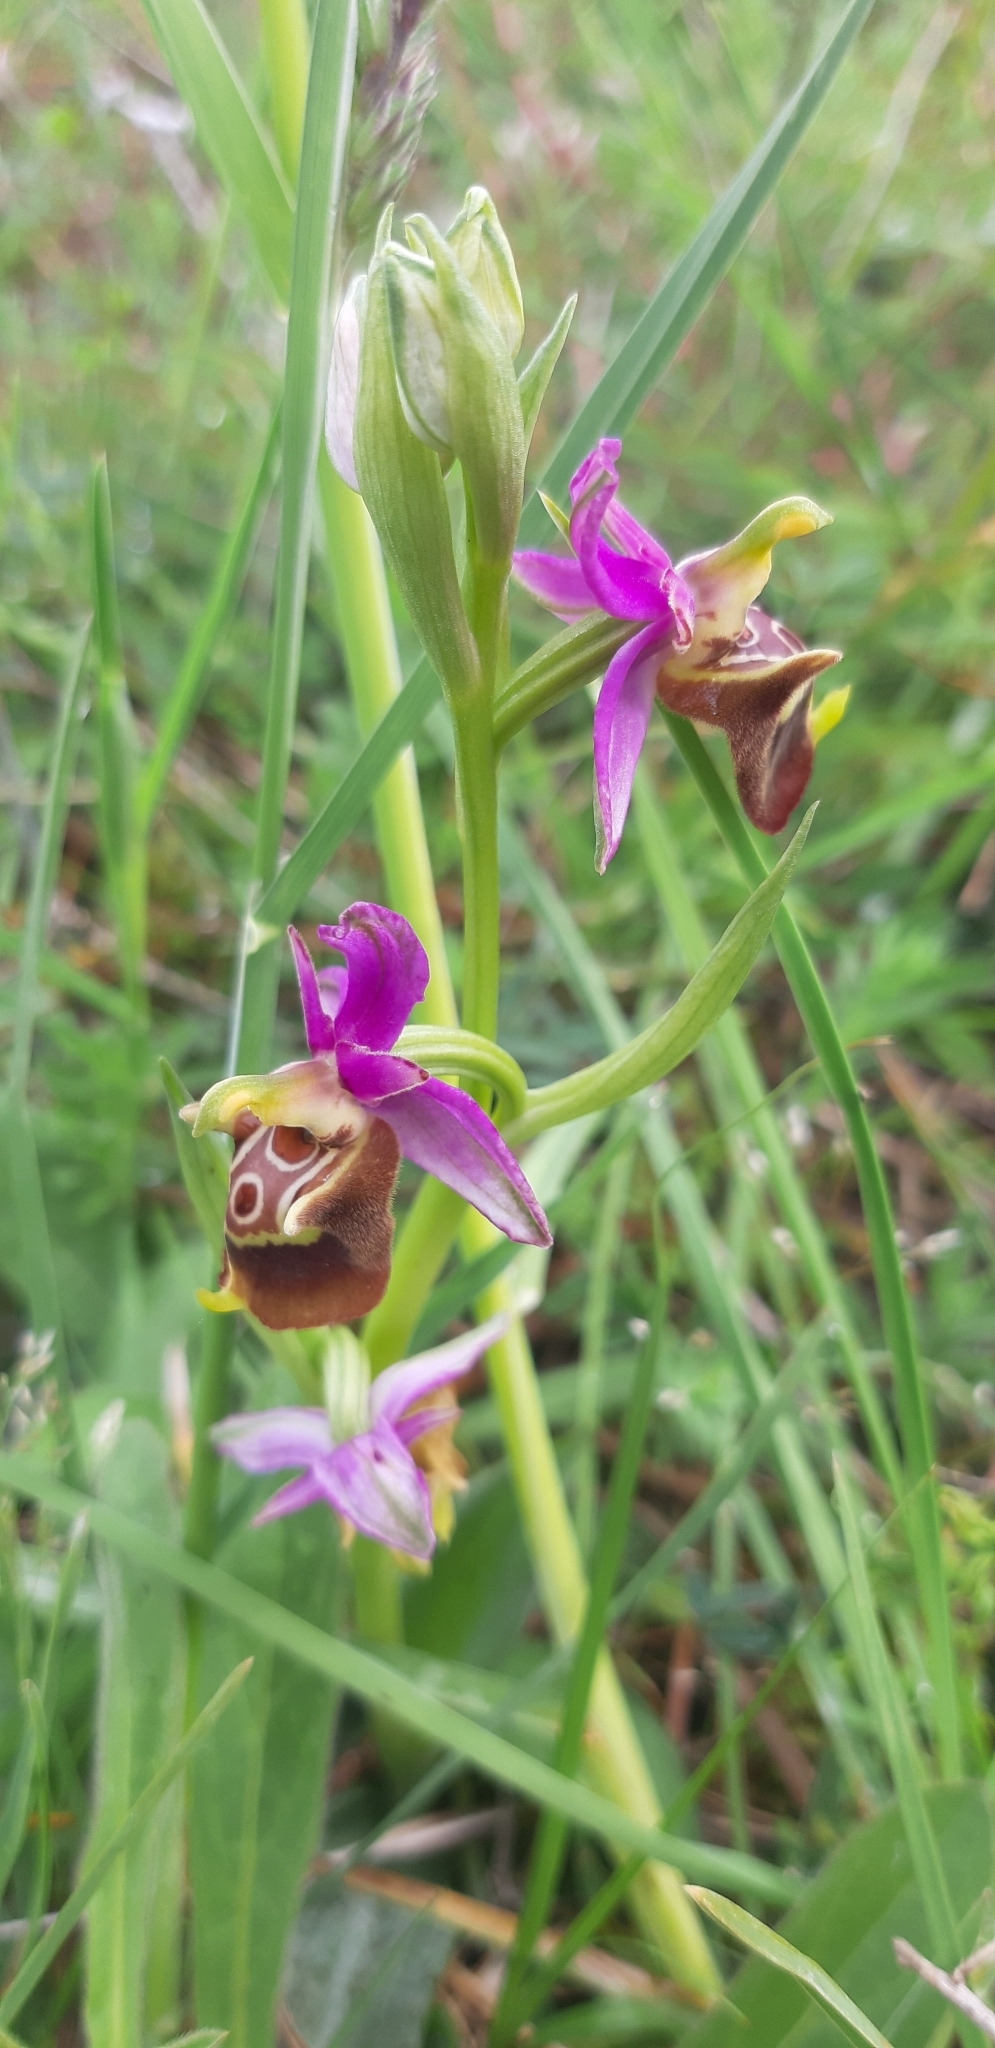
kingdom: Plantae
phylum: Tracheophyta
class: Liliopsida
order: Asparagales
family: Orchidaceae
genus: Ophrys
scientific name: Ophrys holosericea
